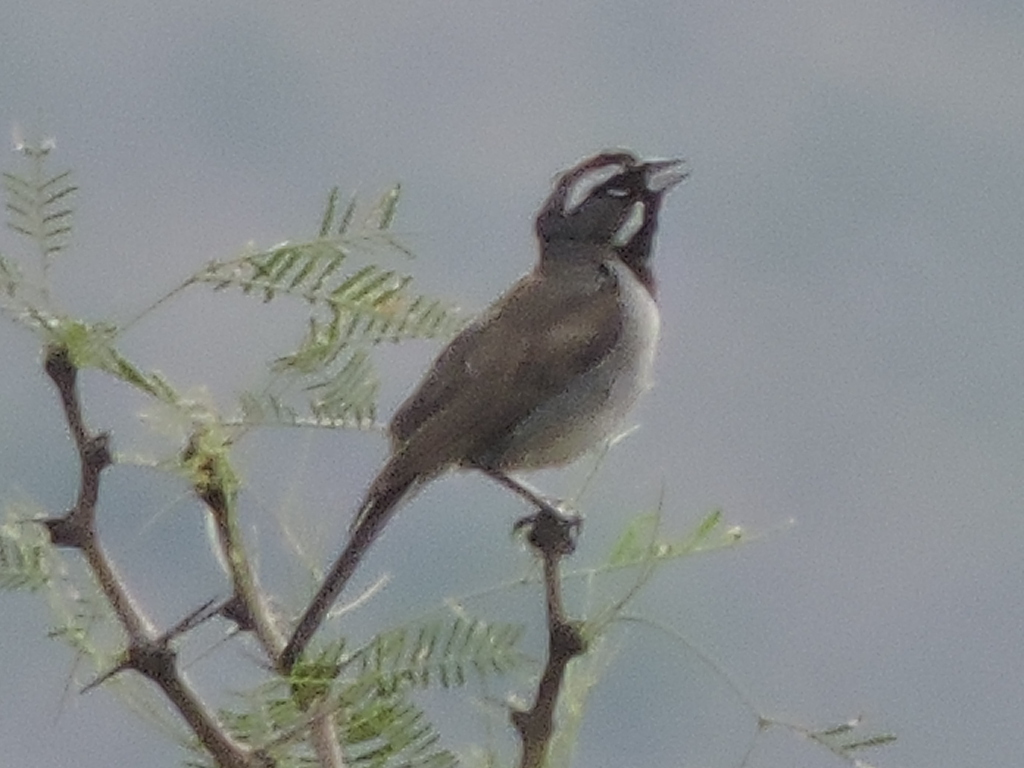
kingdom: Animalia
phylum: Chordata
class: Aves
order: Passeriformes
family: Passerellidae
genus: Amphispiza
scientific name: Amphispiza bilineata
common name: Black-throated sparrow
